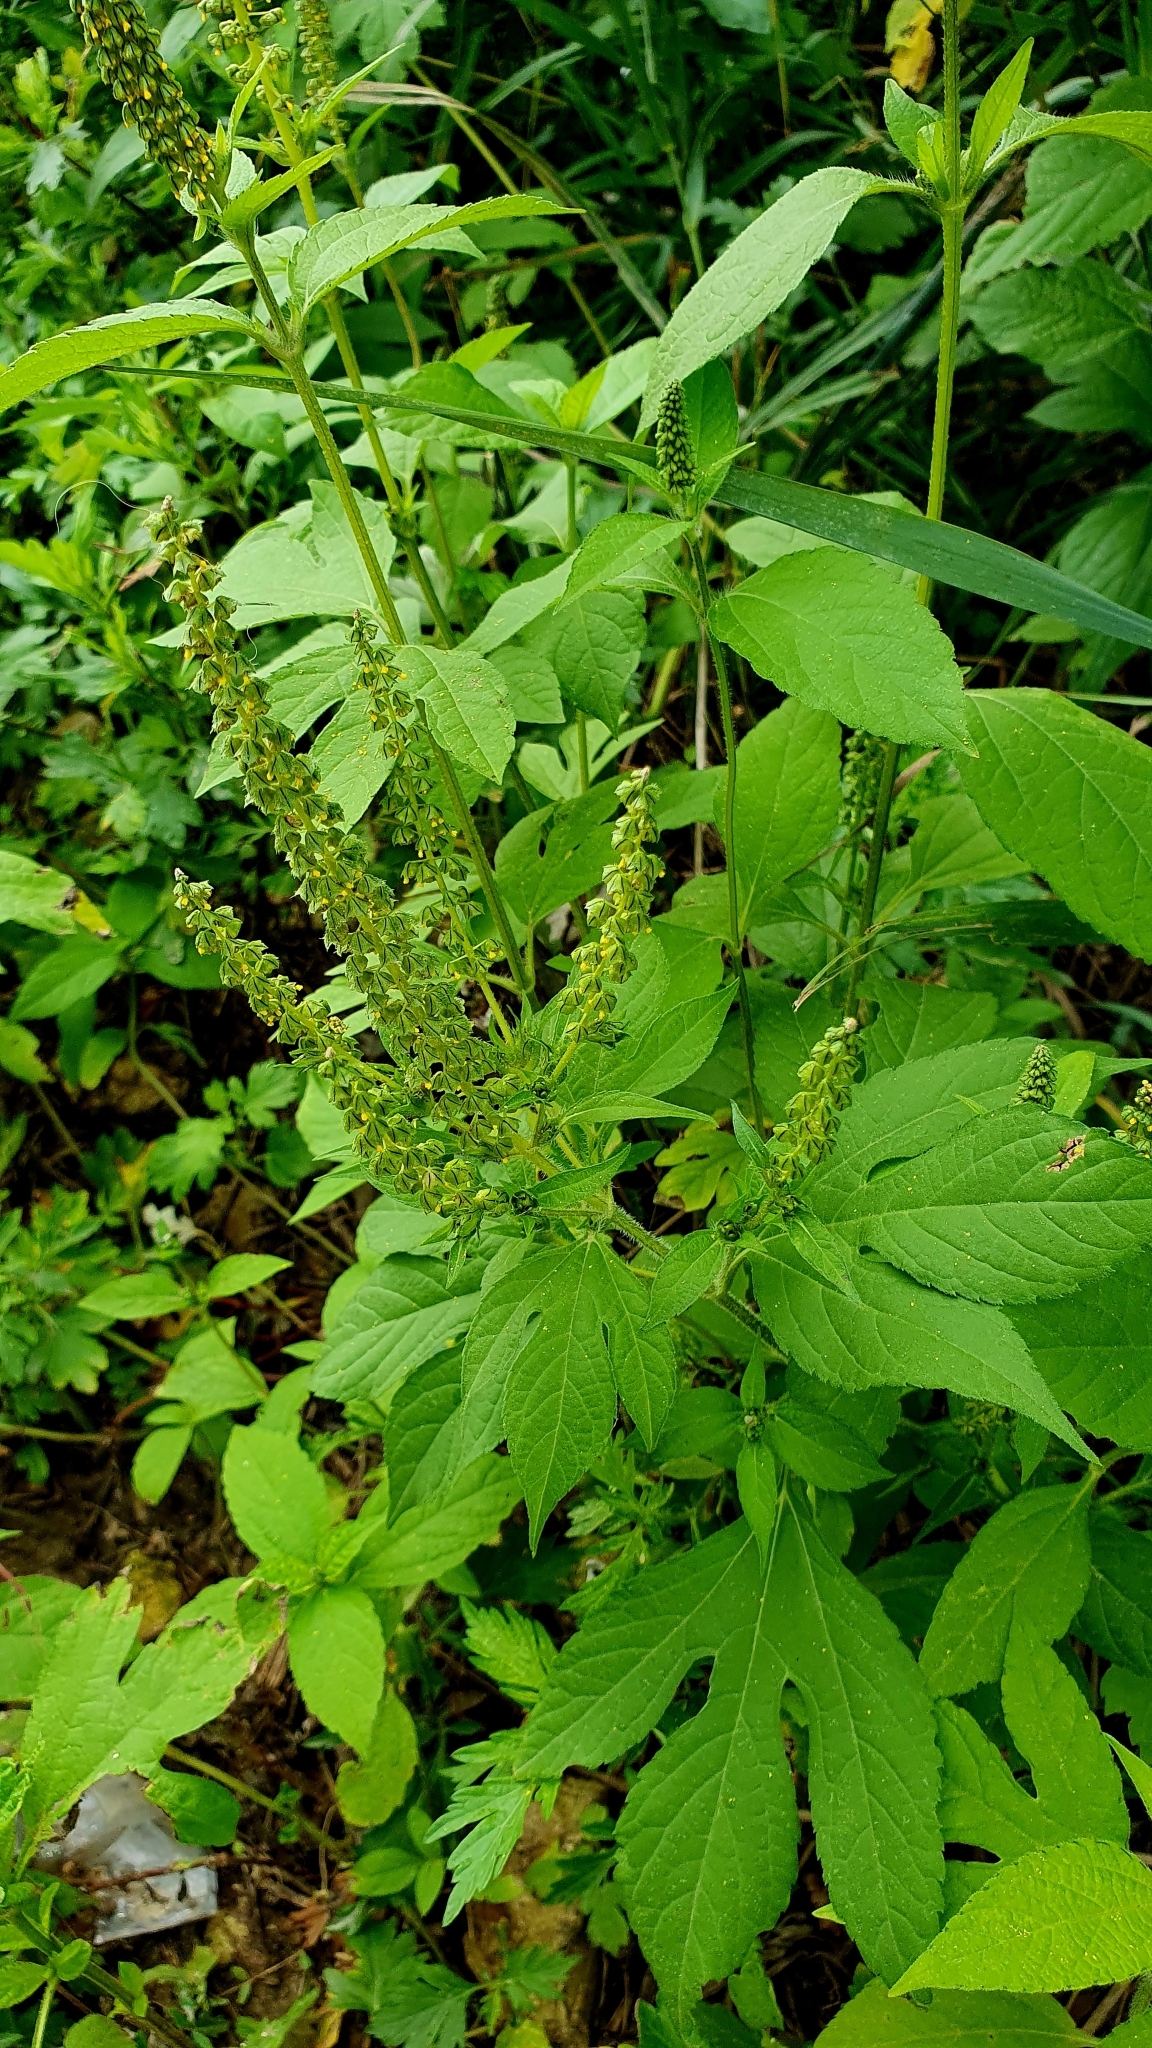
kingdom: Plantae
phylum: Tracheophyta
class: Magnoliopsida
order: Asterales
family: Asteraceae
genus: Ambrosia
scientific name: Ambrosia trifida
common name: Giant ragweed
